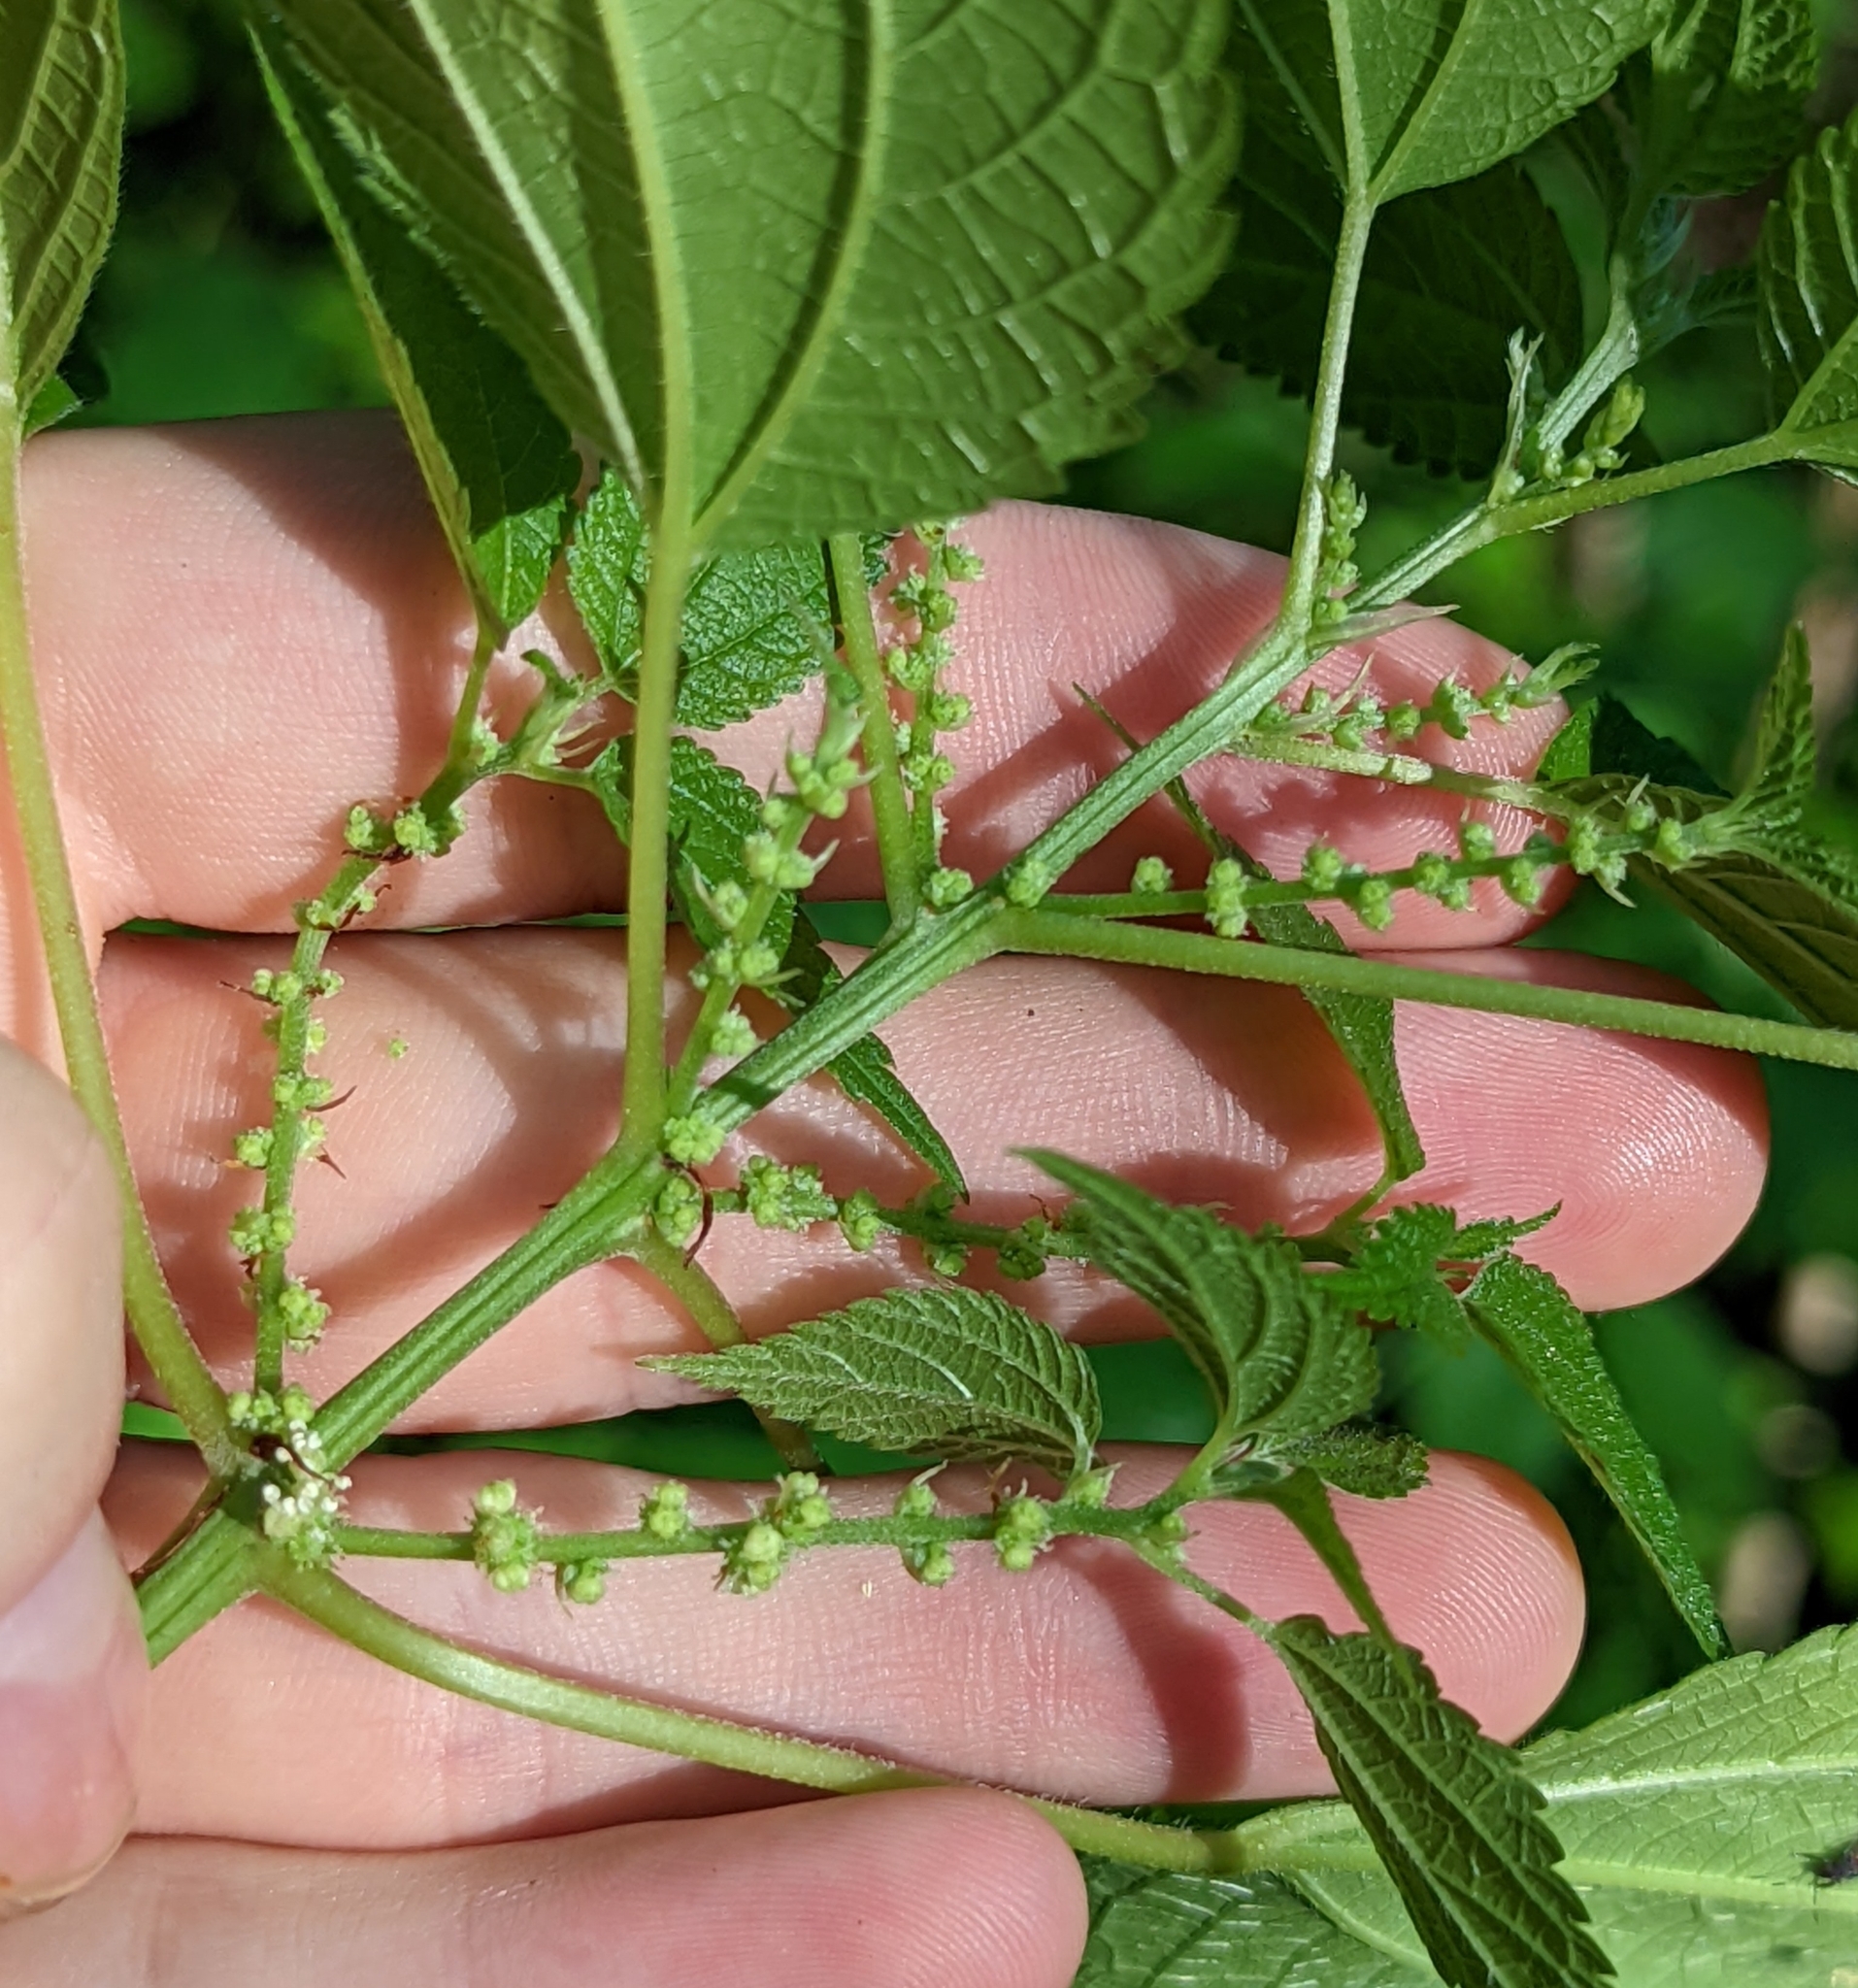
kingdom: Plantae
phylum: Tracheophyta
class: Magnoliopsida
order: Rosales
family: Urticaceae
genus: Boehmeria
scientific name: Boehmeria cylindrica
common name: Bog-hemp
